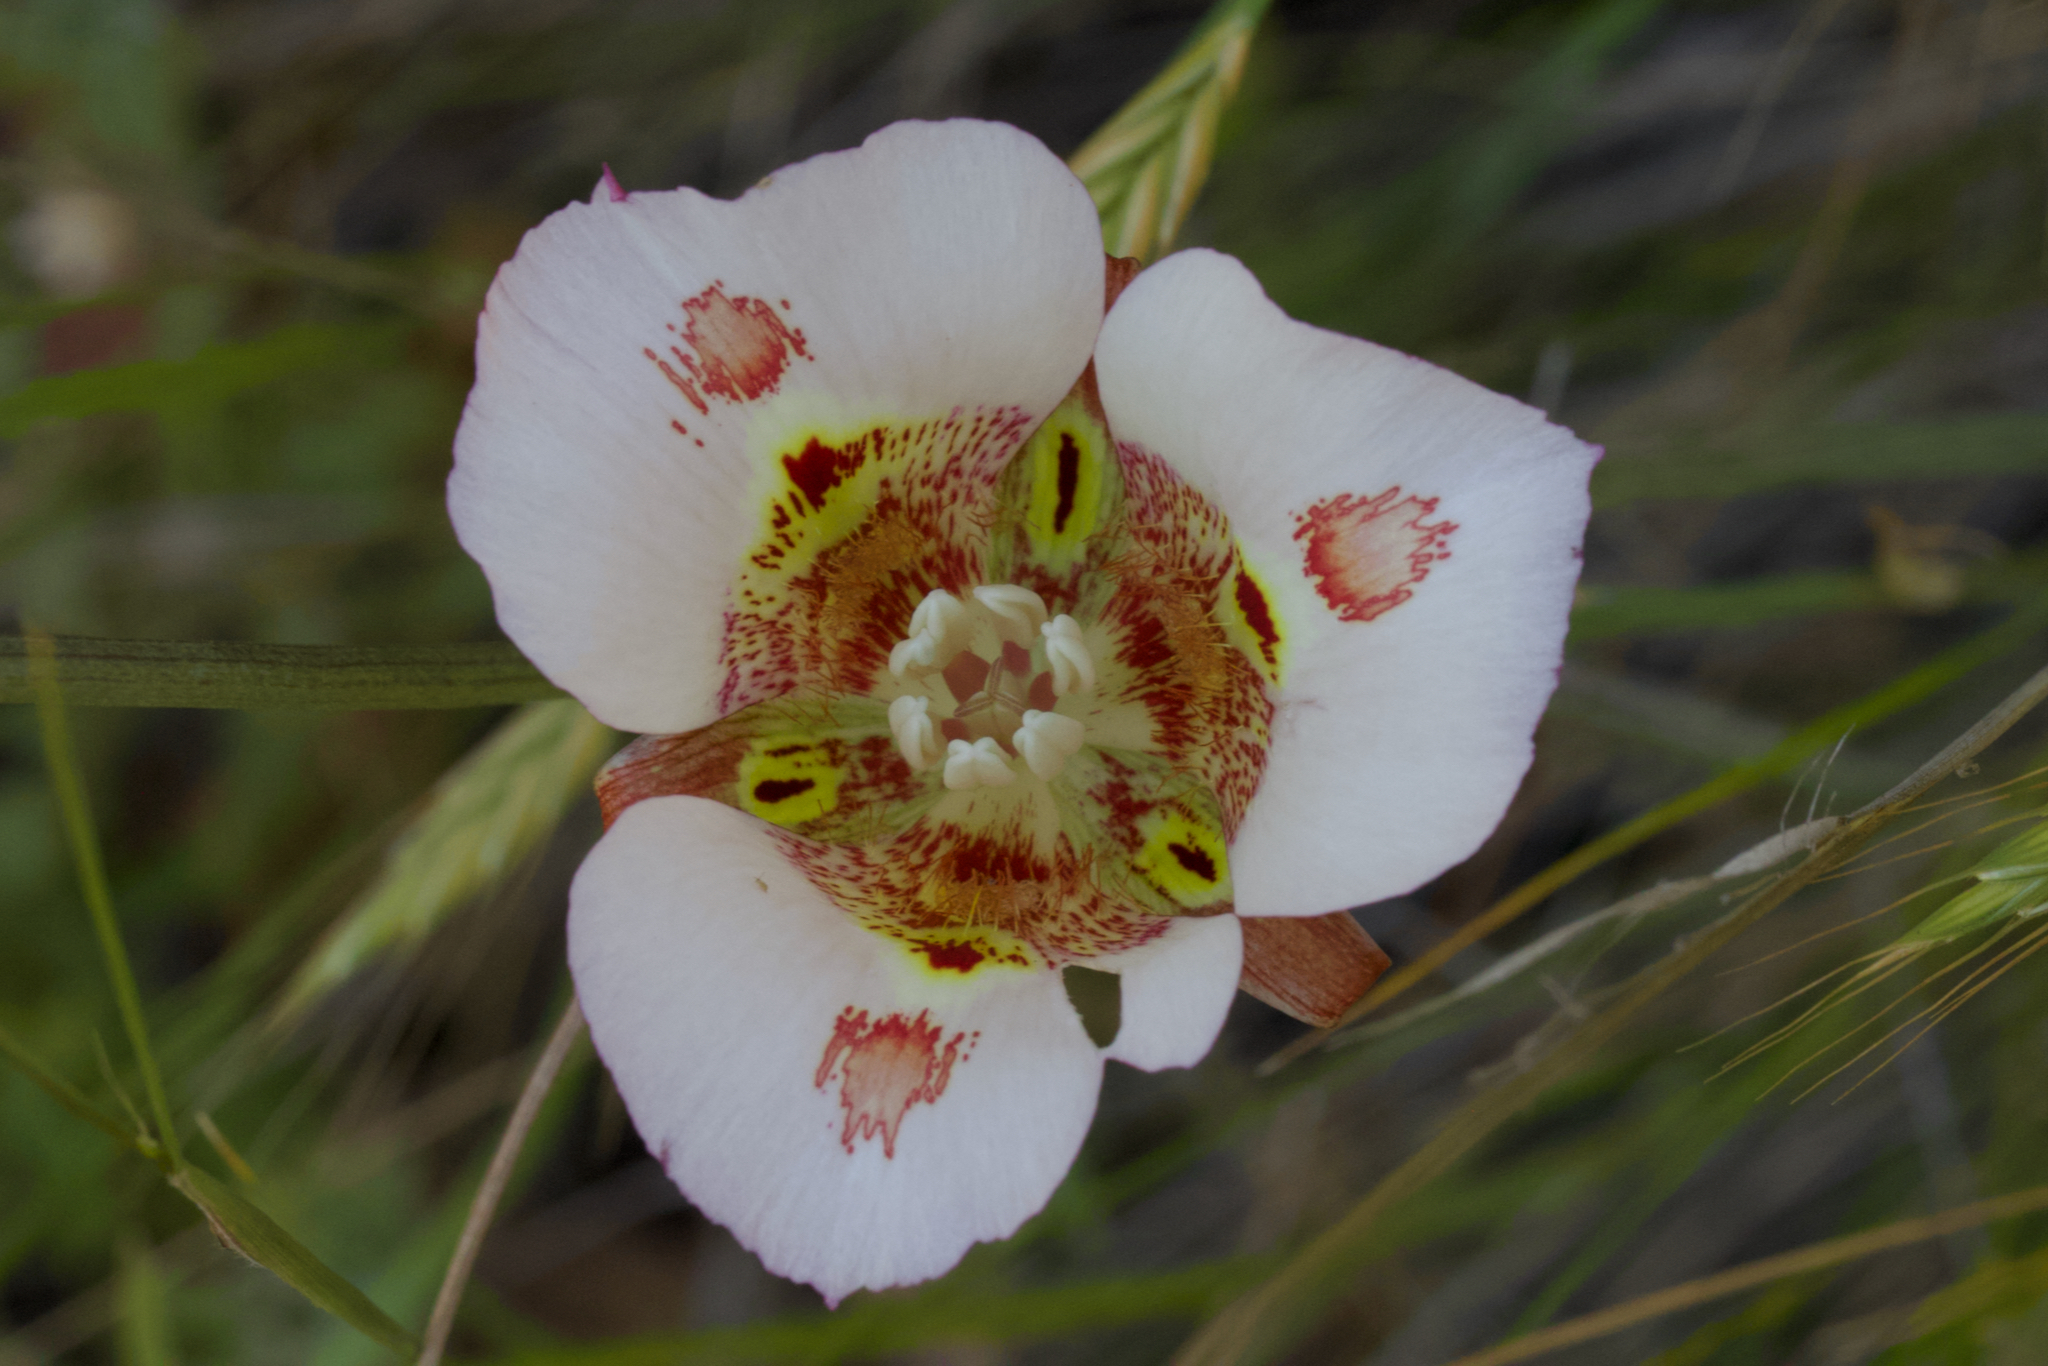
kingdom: Plantae
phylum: Tracheophyta
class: Liliopsida
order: Liliales
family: Liliaceae
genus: Calochortus
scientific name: Calochortus venustus
